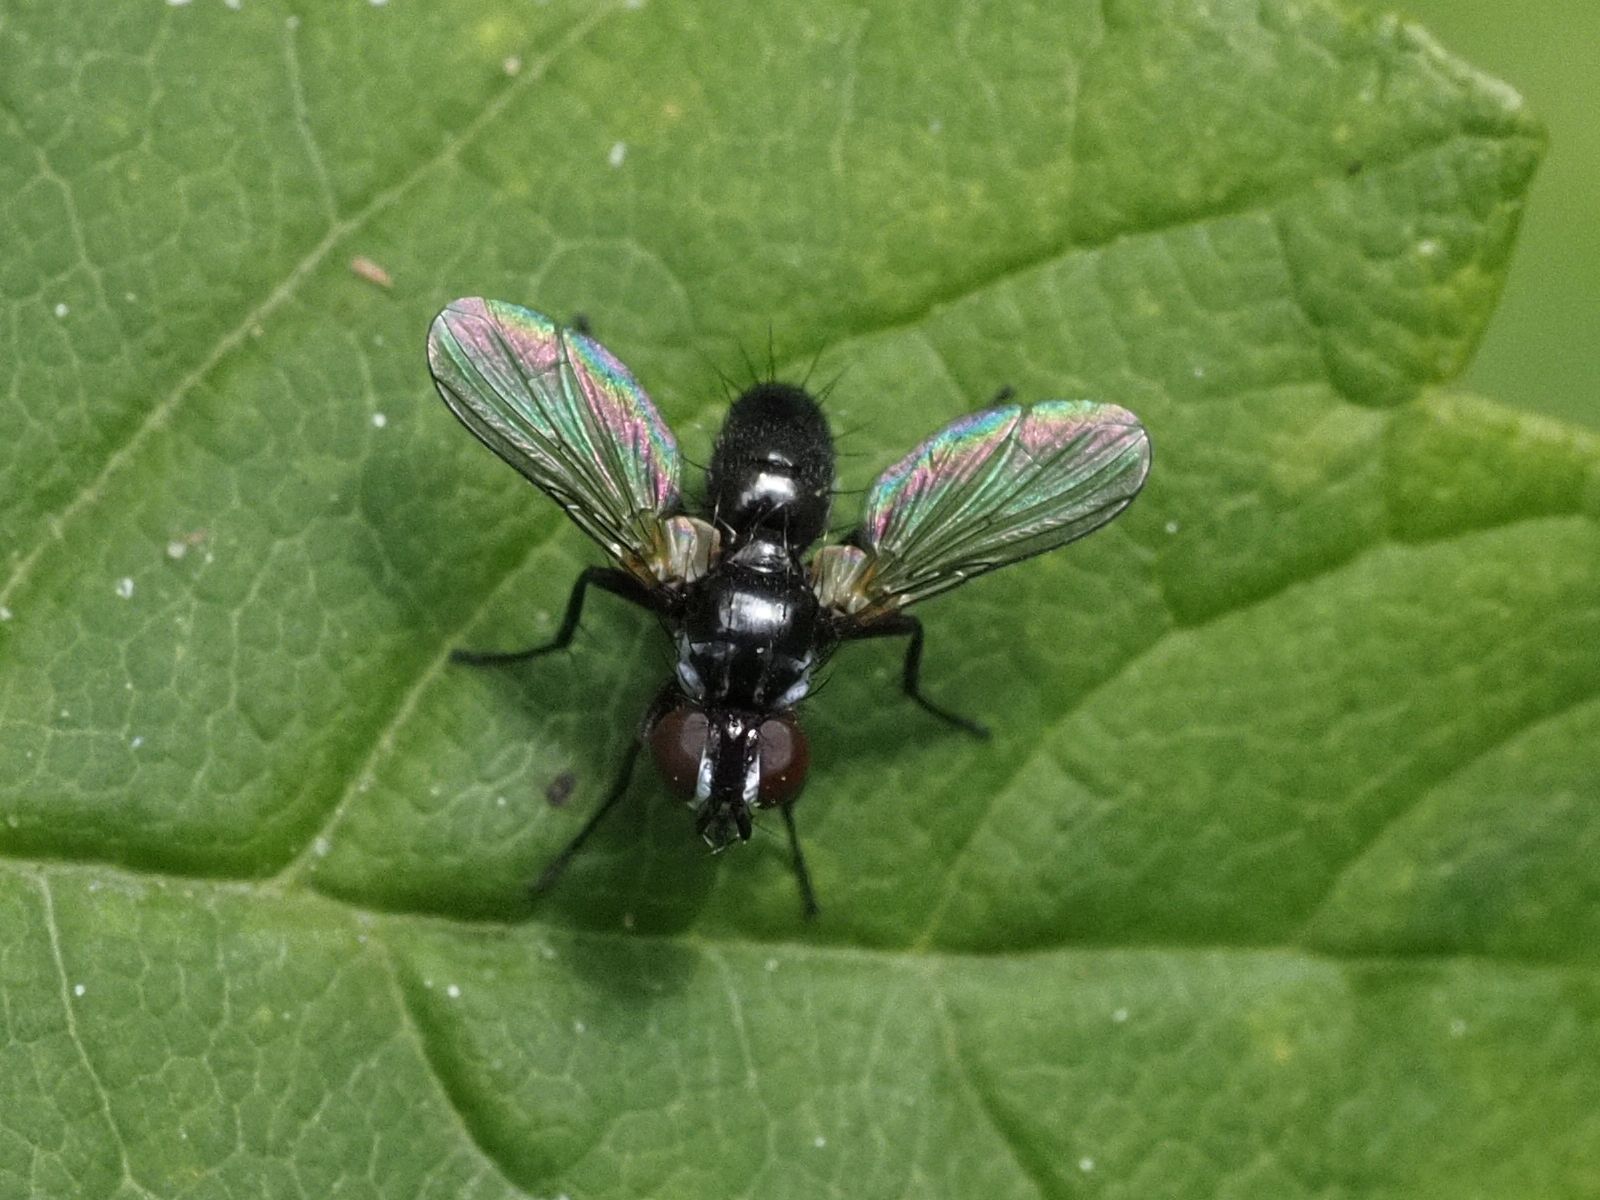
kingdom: Animalia
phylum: Arthropoda
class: Insecta
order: Diptera
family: Tachinidae
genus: Phania
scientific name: Phania funesta
